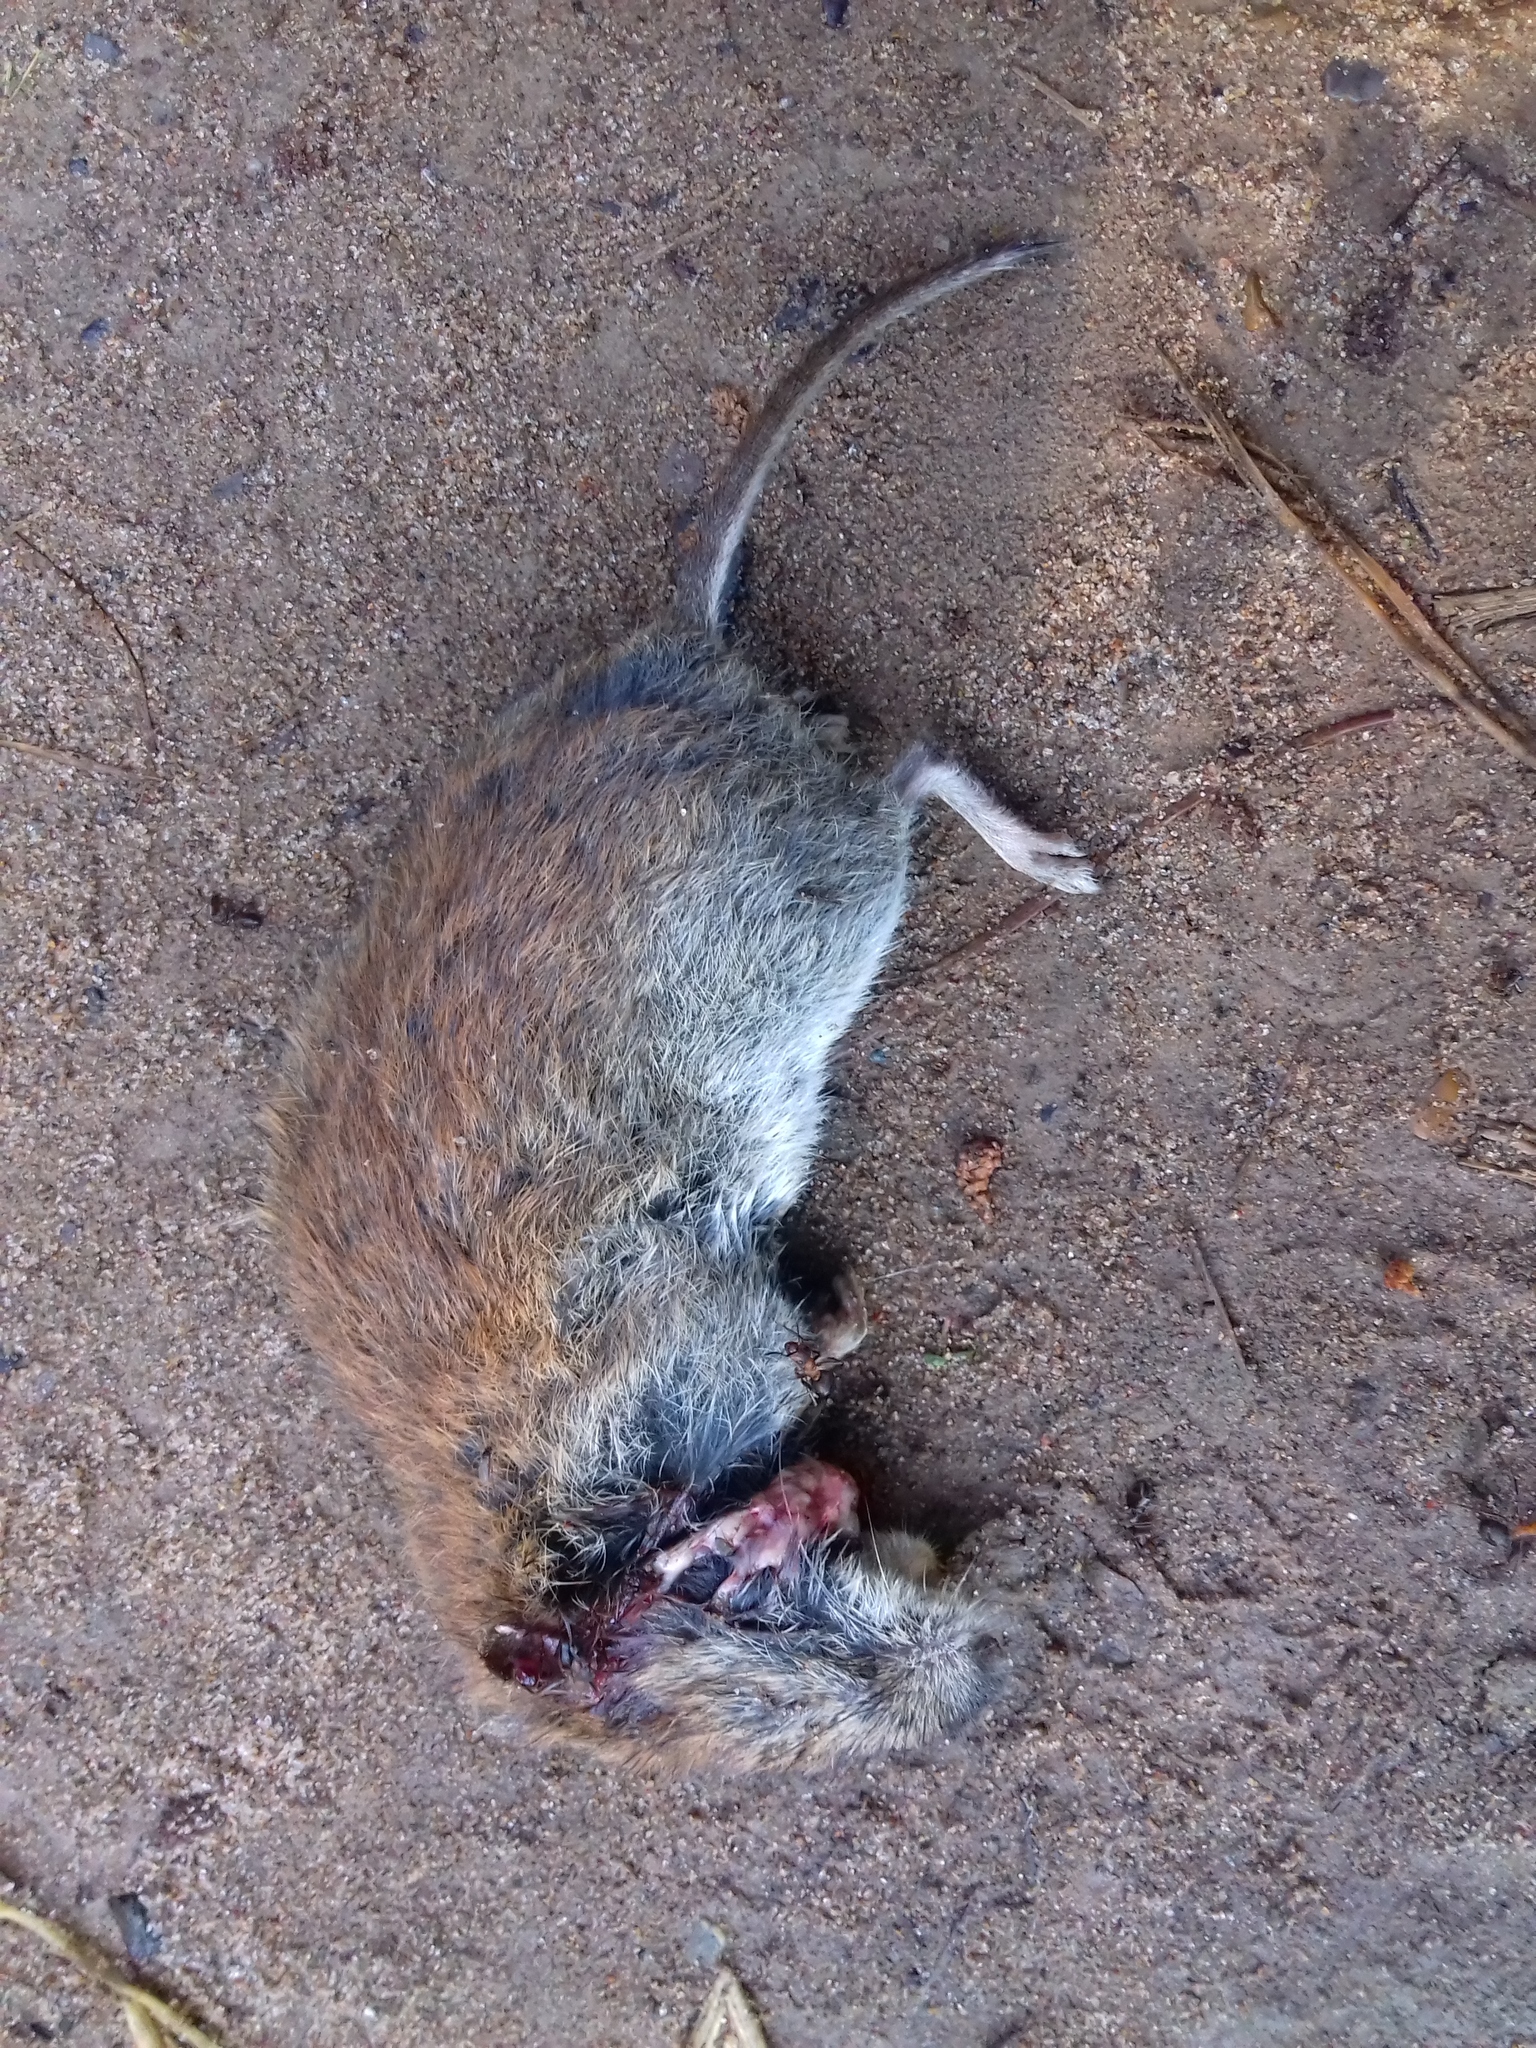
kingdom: Animalia
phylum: Chordata
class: Mammalia
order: Rodentia
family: Cricetidae
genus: Myodes
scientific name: Myodes glareolus
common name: Bank vole
